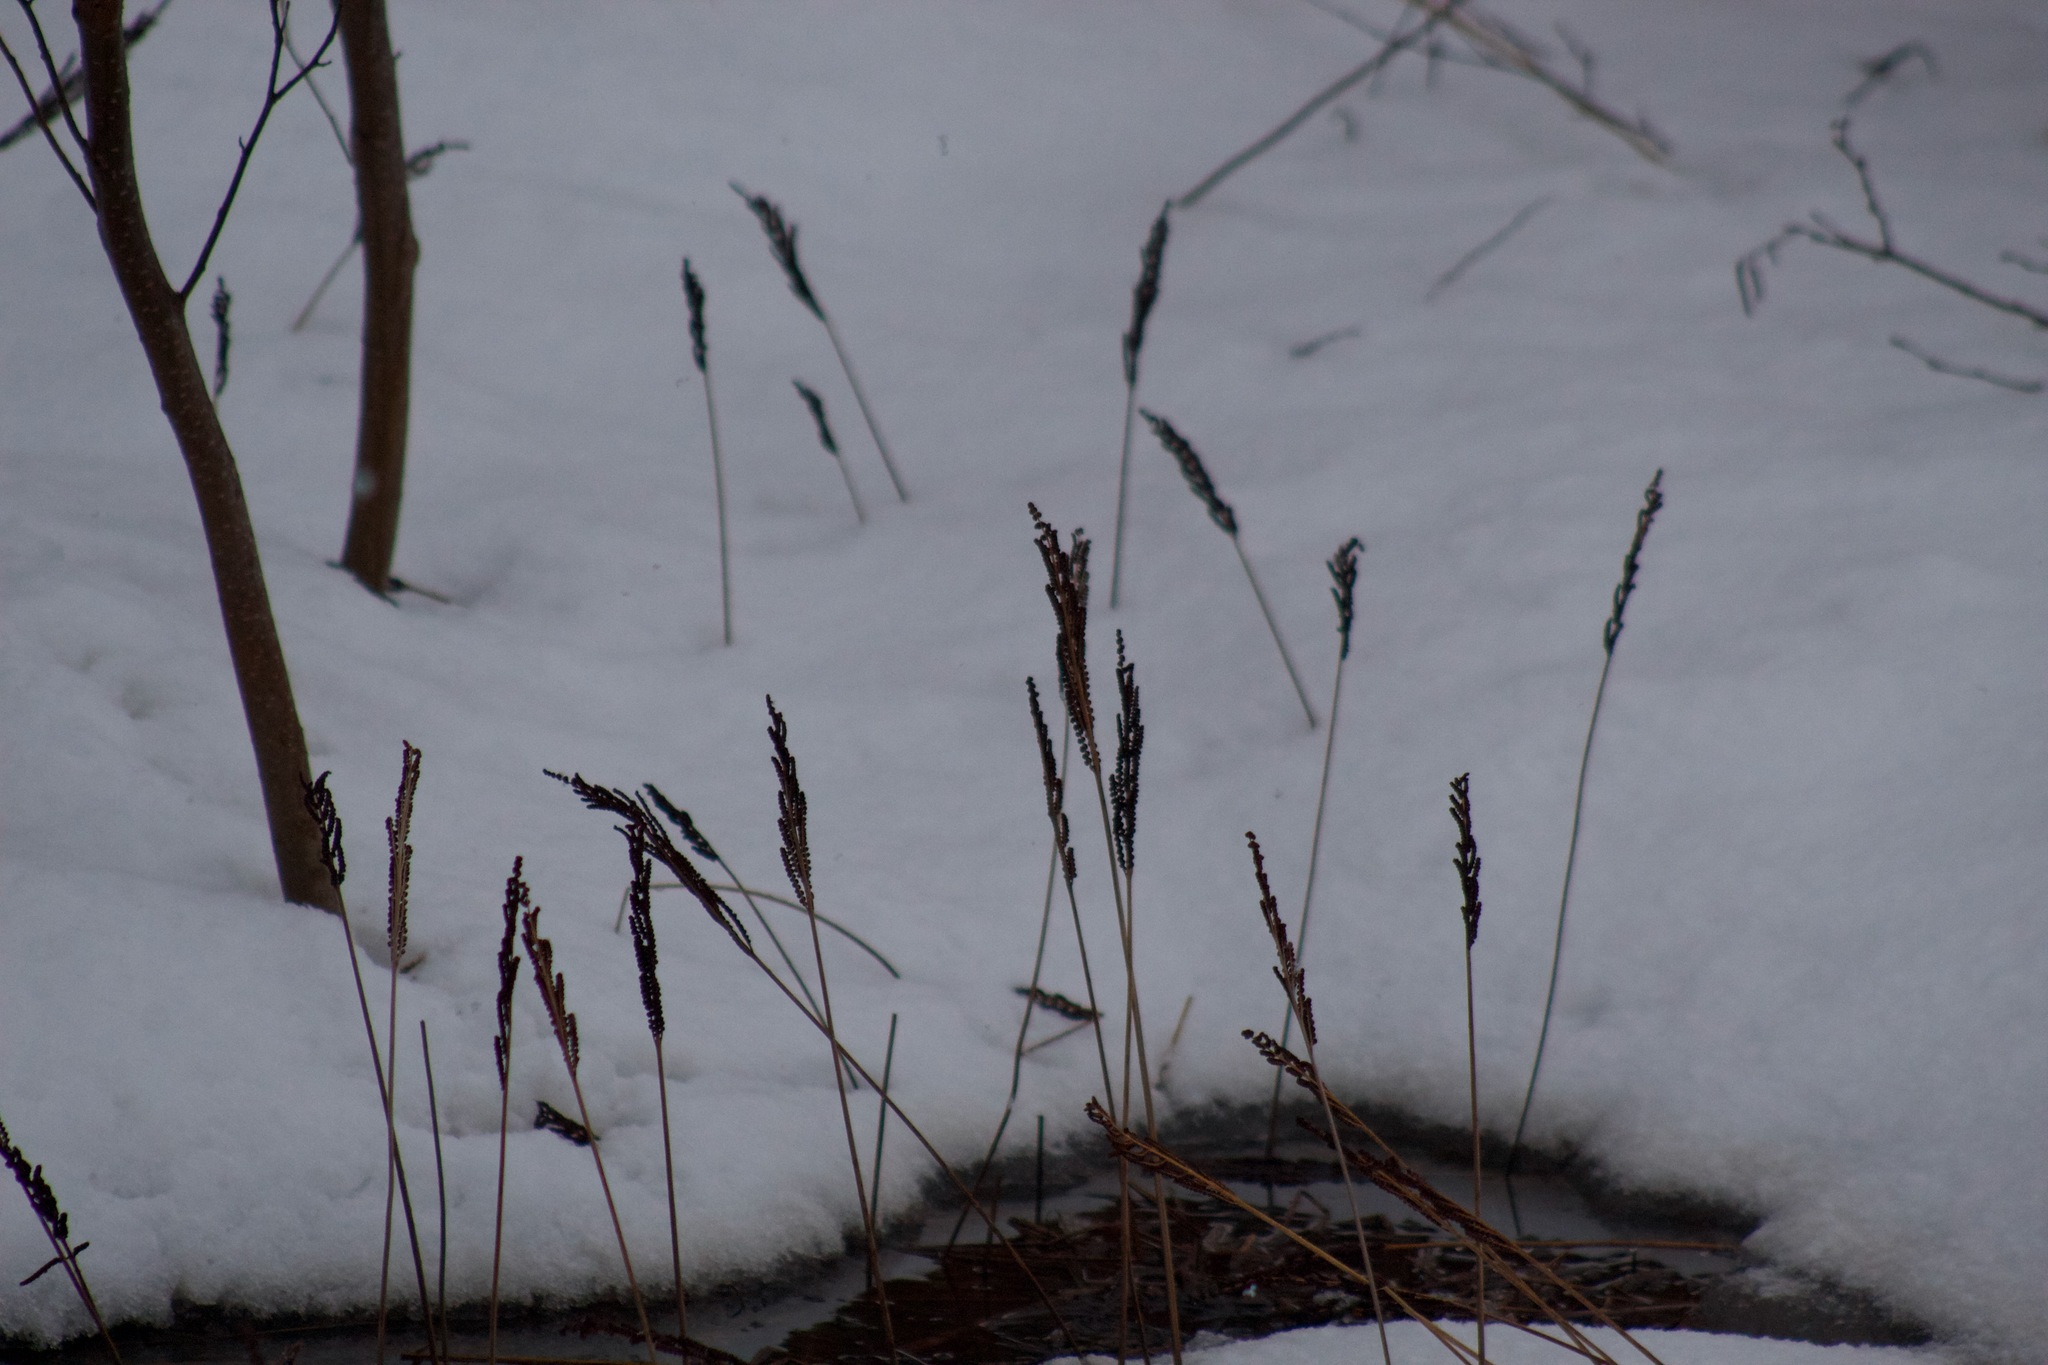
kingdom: Plantae
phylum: Tracheophyta
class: Polypodiopsida
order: Polypodiales
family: Onocleaceae
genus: Onoclea
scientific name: Onoclea sensibilis
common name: Sensitive fern
